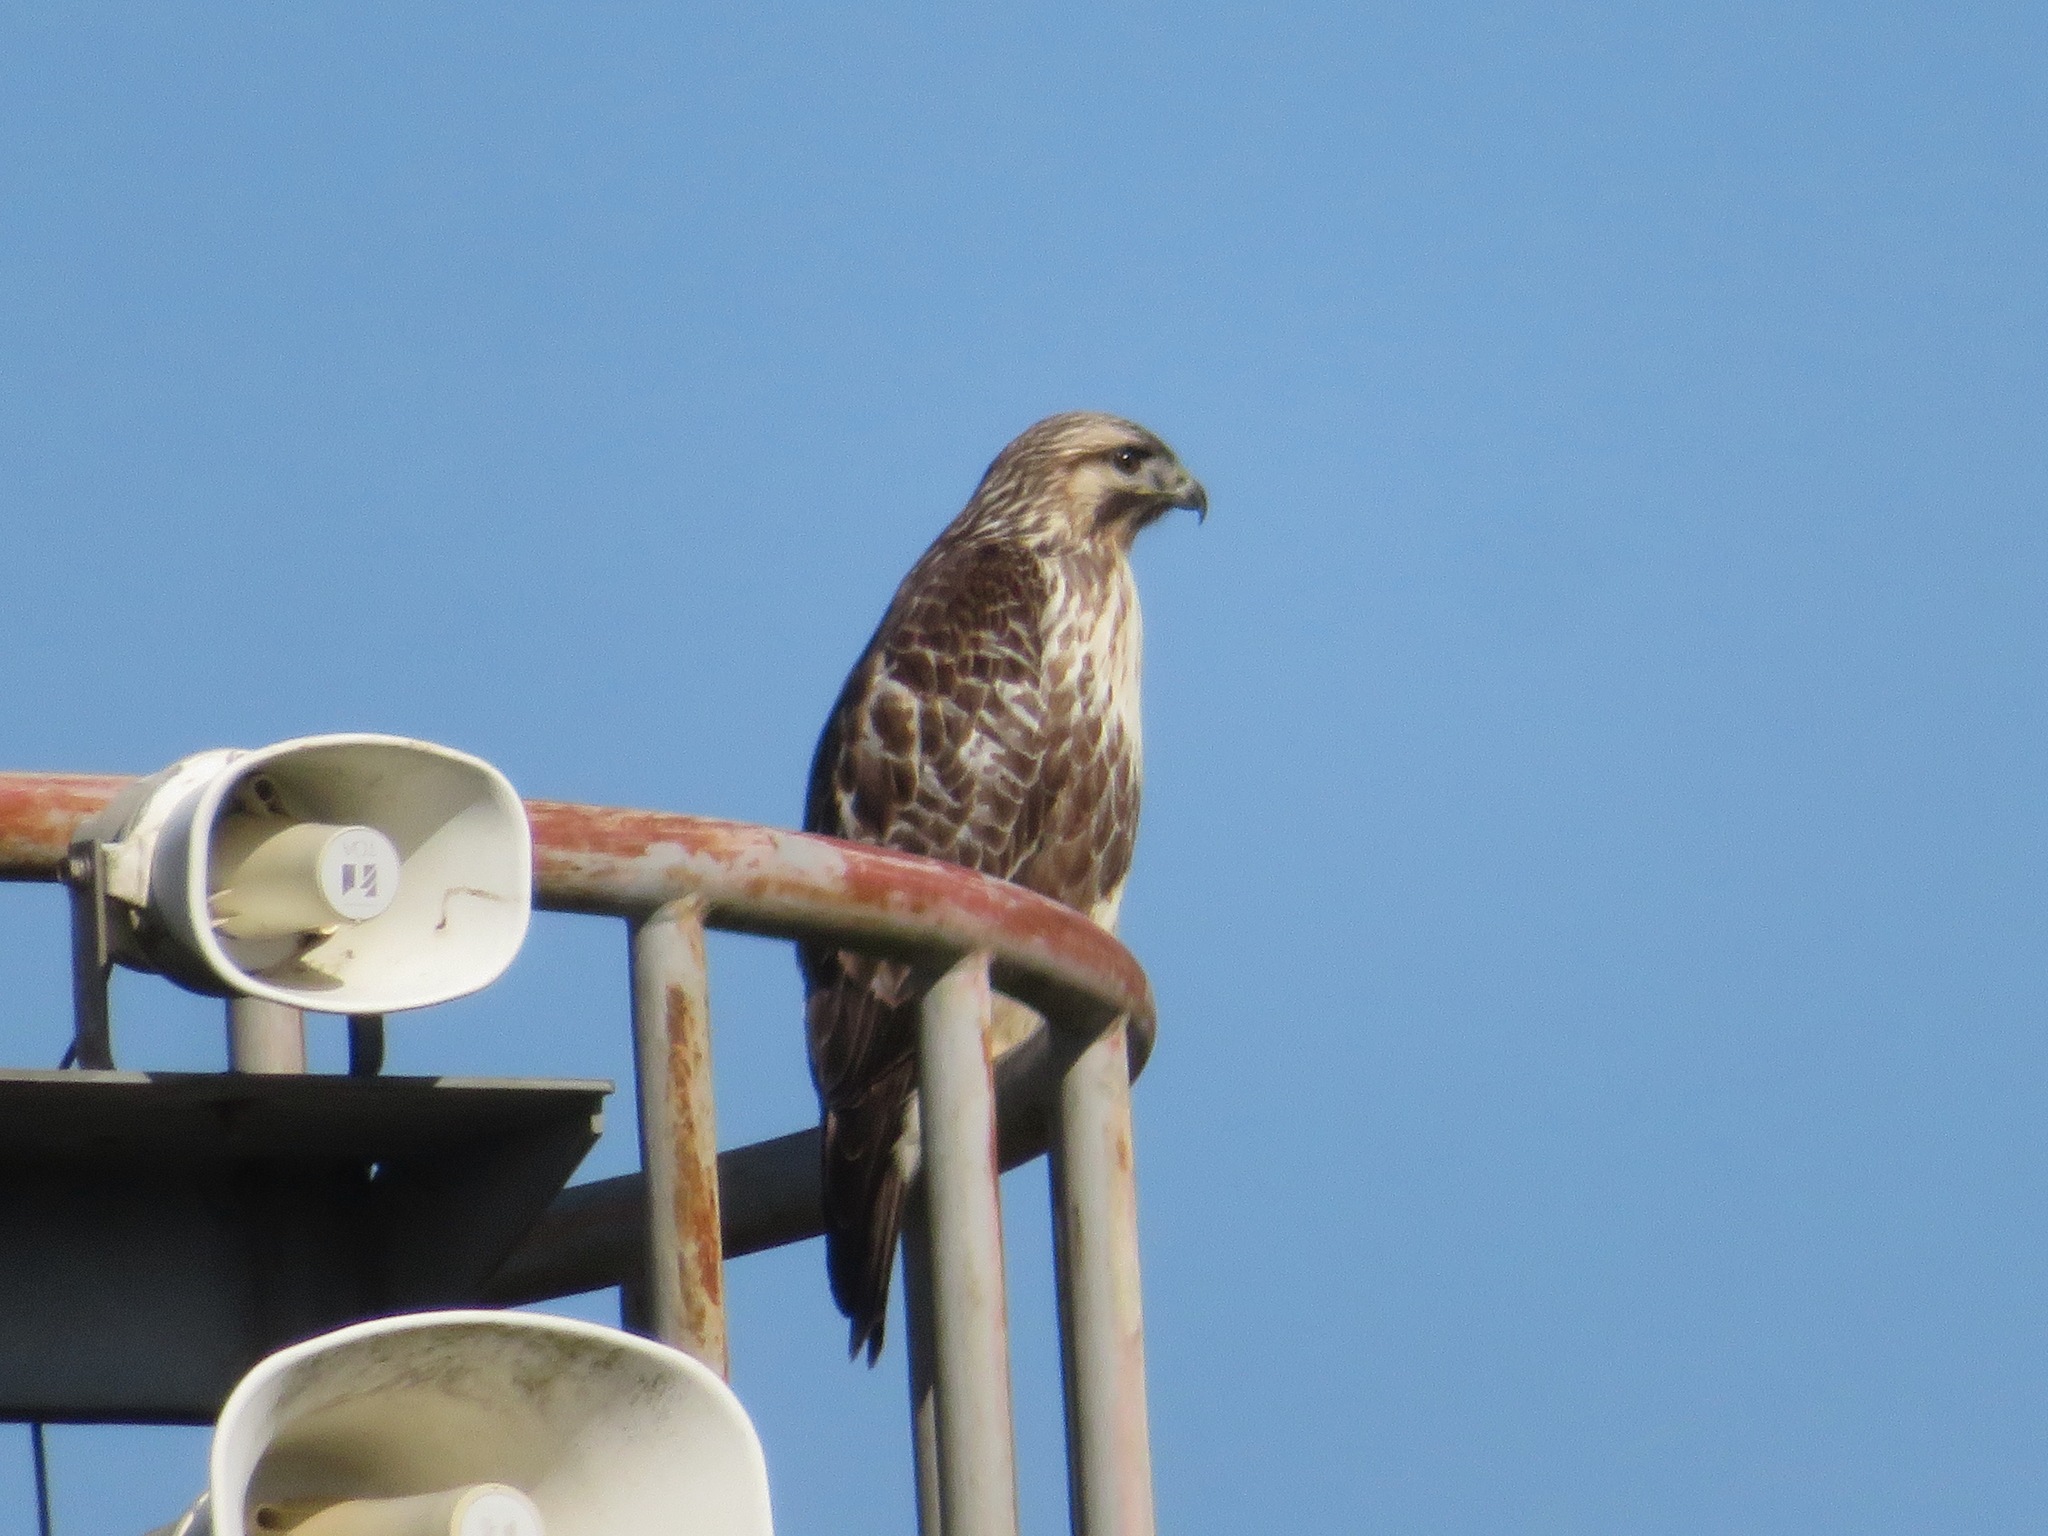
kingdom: Animalia
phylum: Chordata
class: Aves
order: Accipitriformes
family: Accipitridae
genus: Buteo
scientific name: Buteo japonicus
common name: Eastern buzzard
